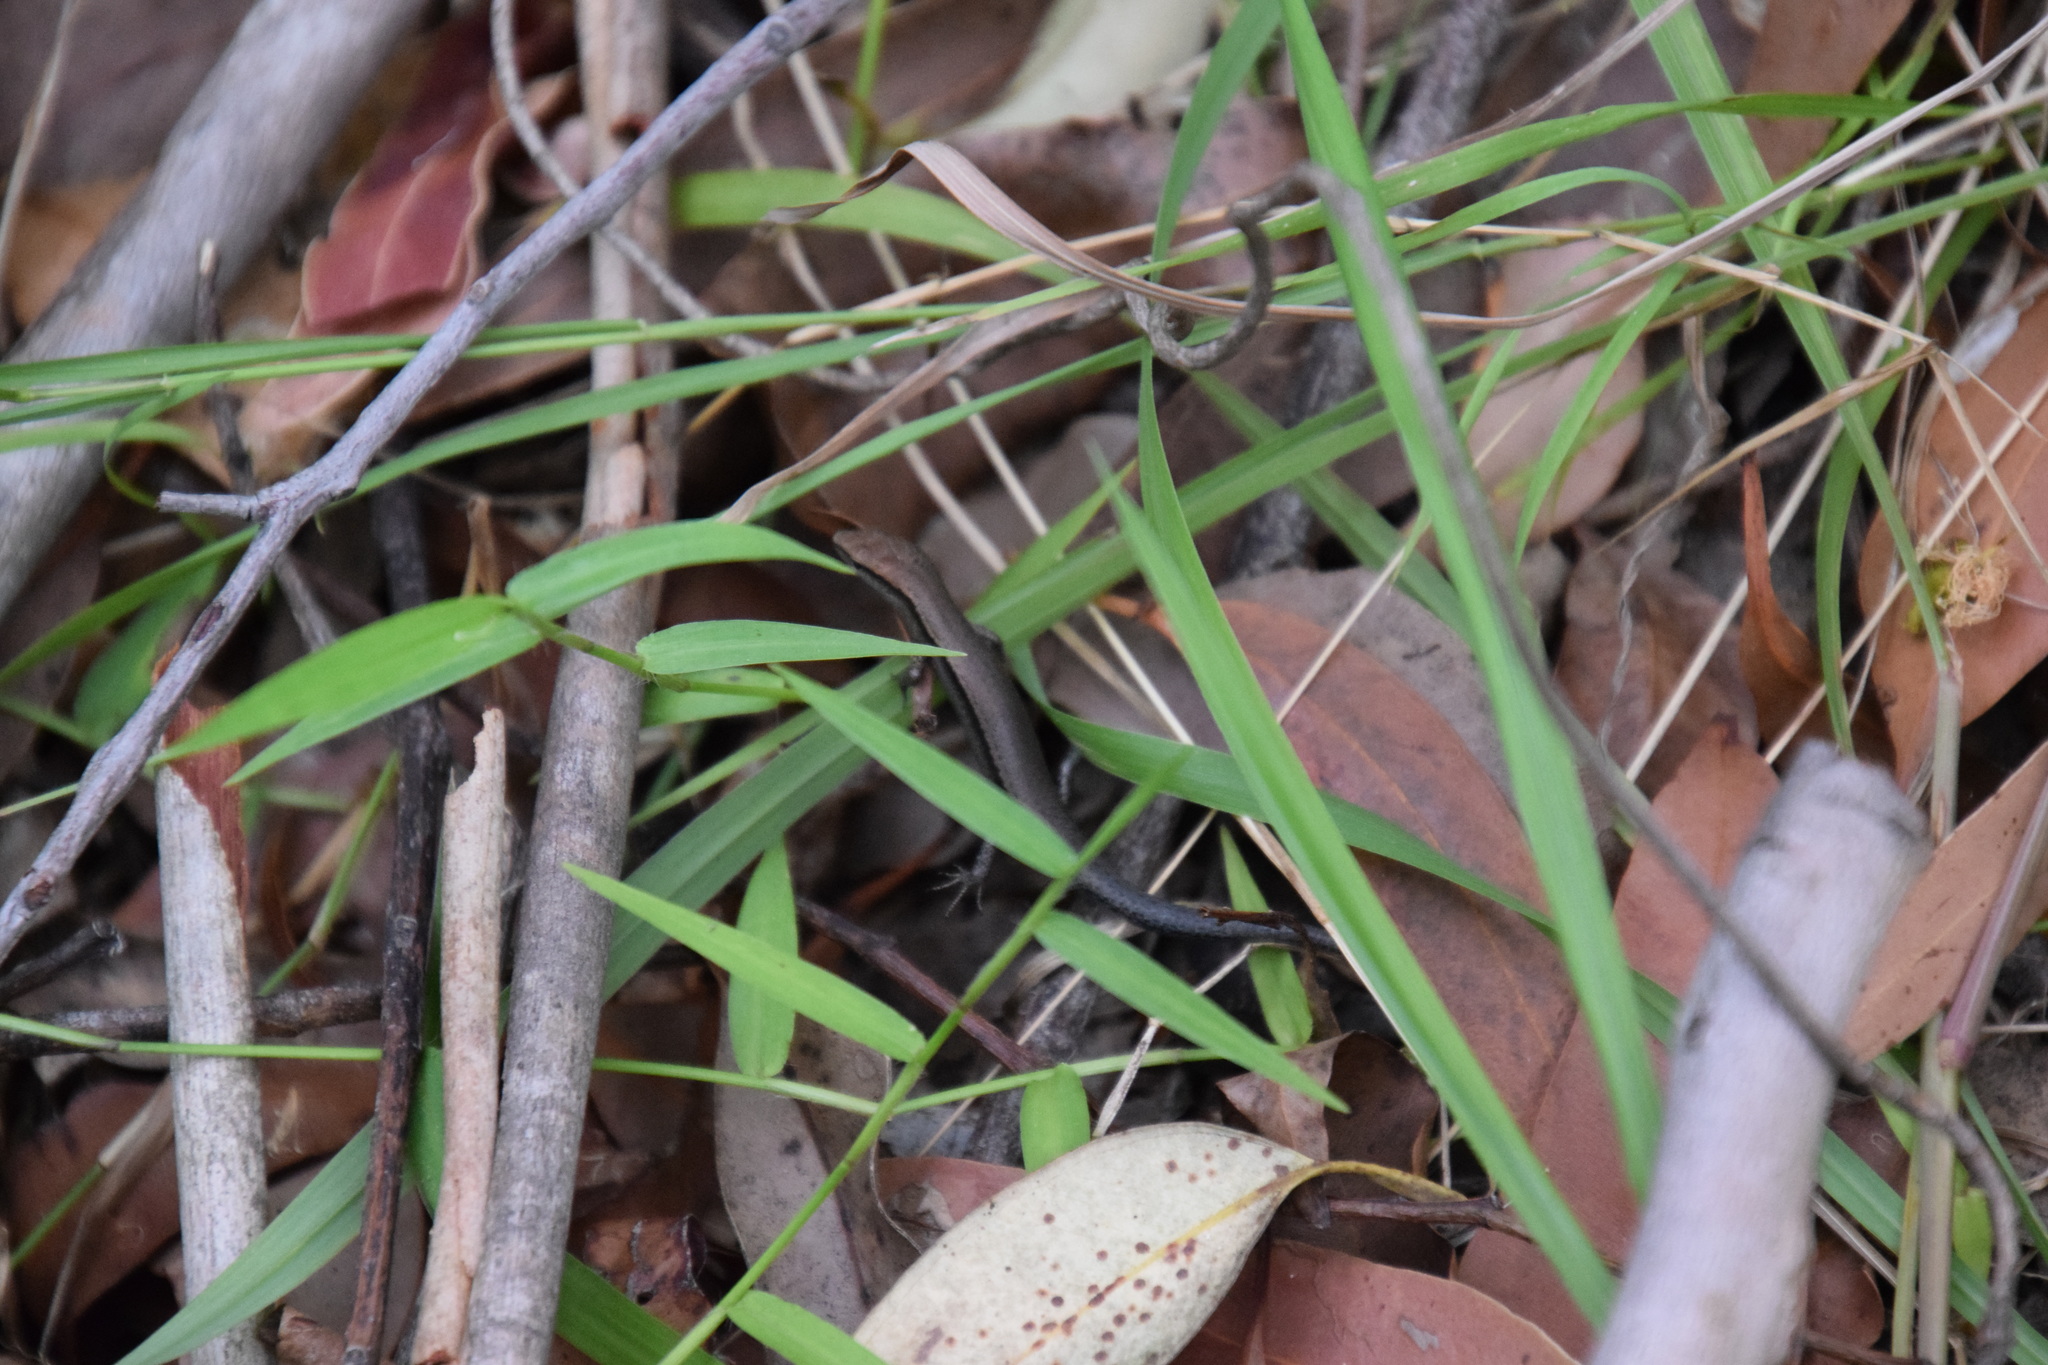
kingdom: Animalia
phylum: Chordata
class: Squamata
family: Scincidae
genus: Lampropholis
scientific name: Lampropholis delicata
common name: Plague skink
